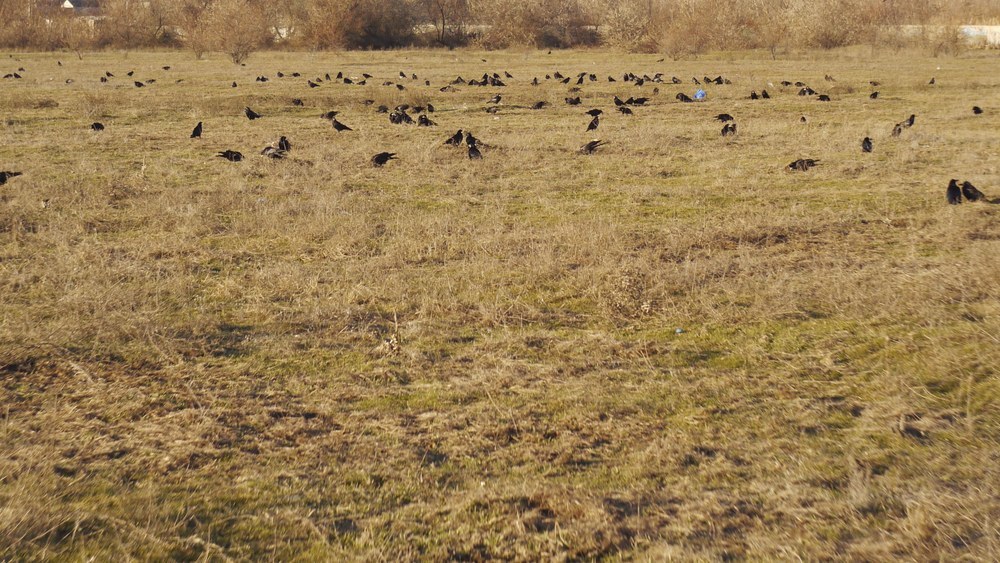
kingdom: Animalia
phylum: Chordata
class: Aves
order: Passeriformes
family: Corvidae
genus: Corvus
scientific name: Corvus frugilegus
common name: Rook
